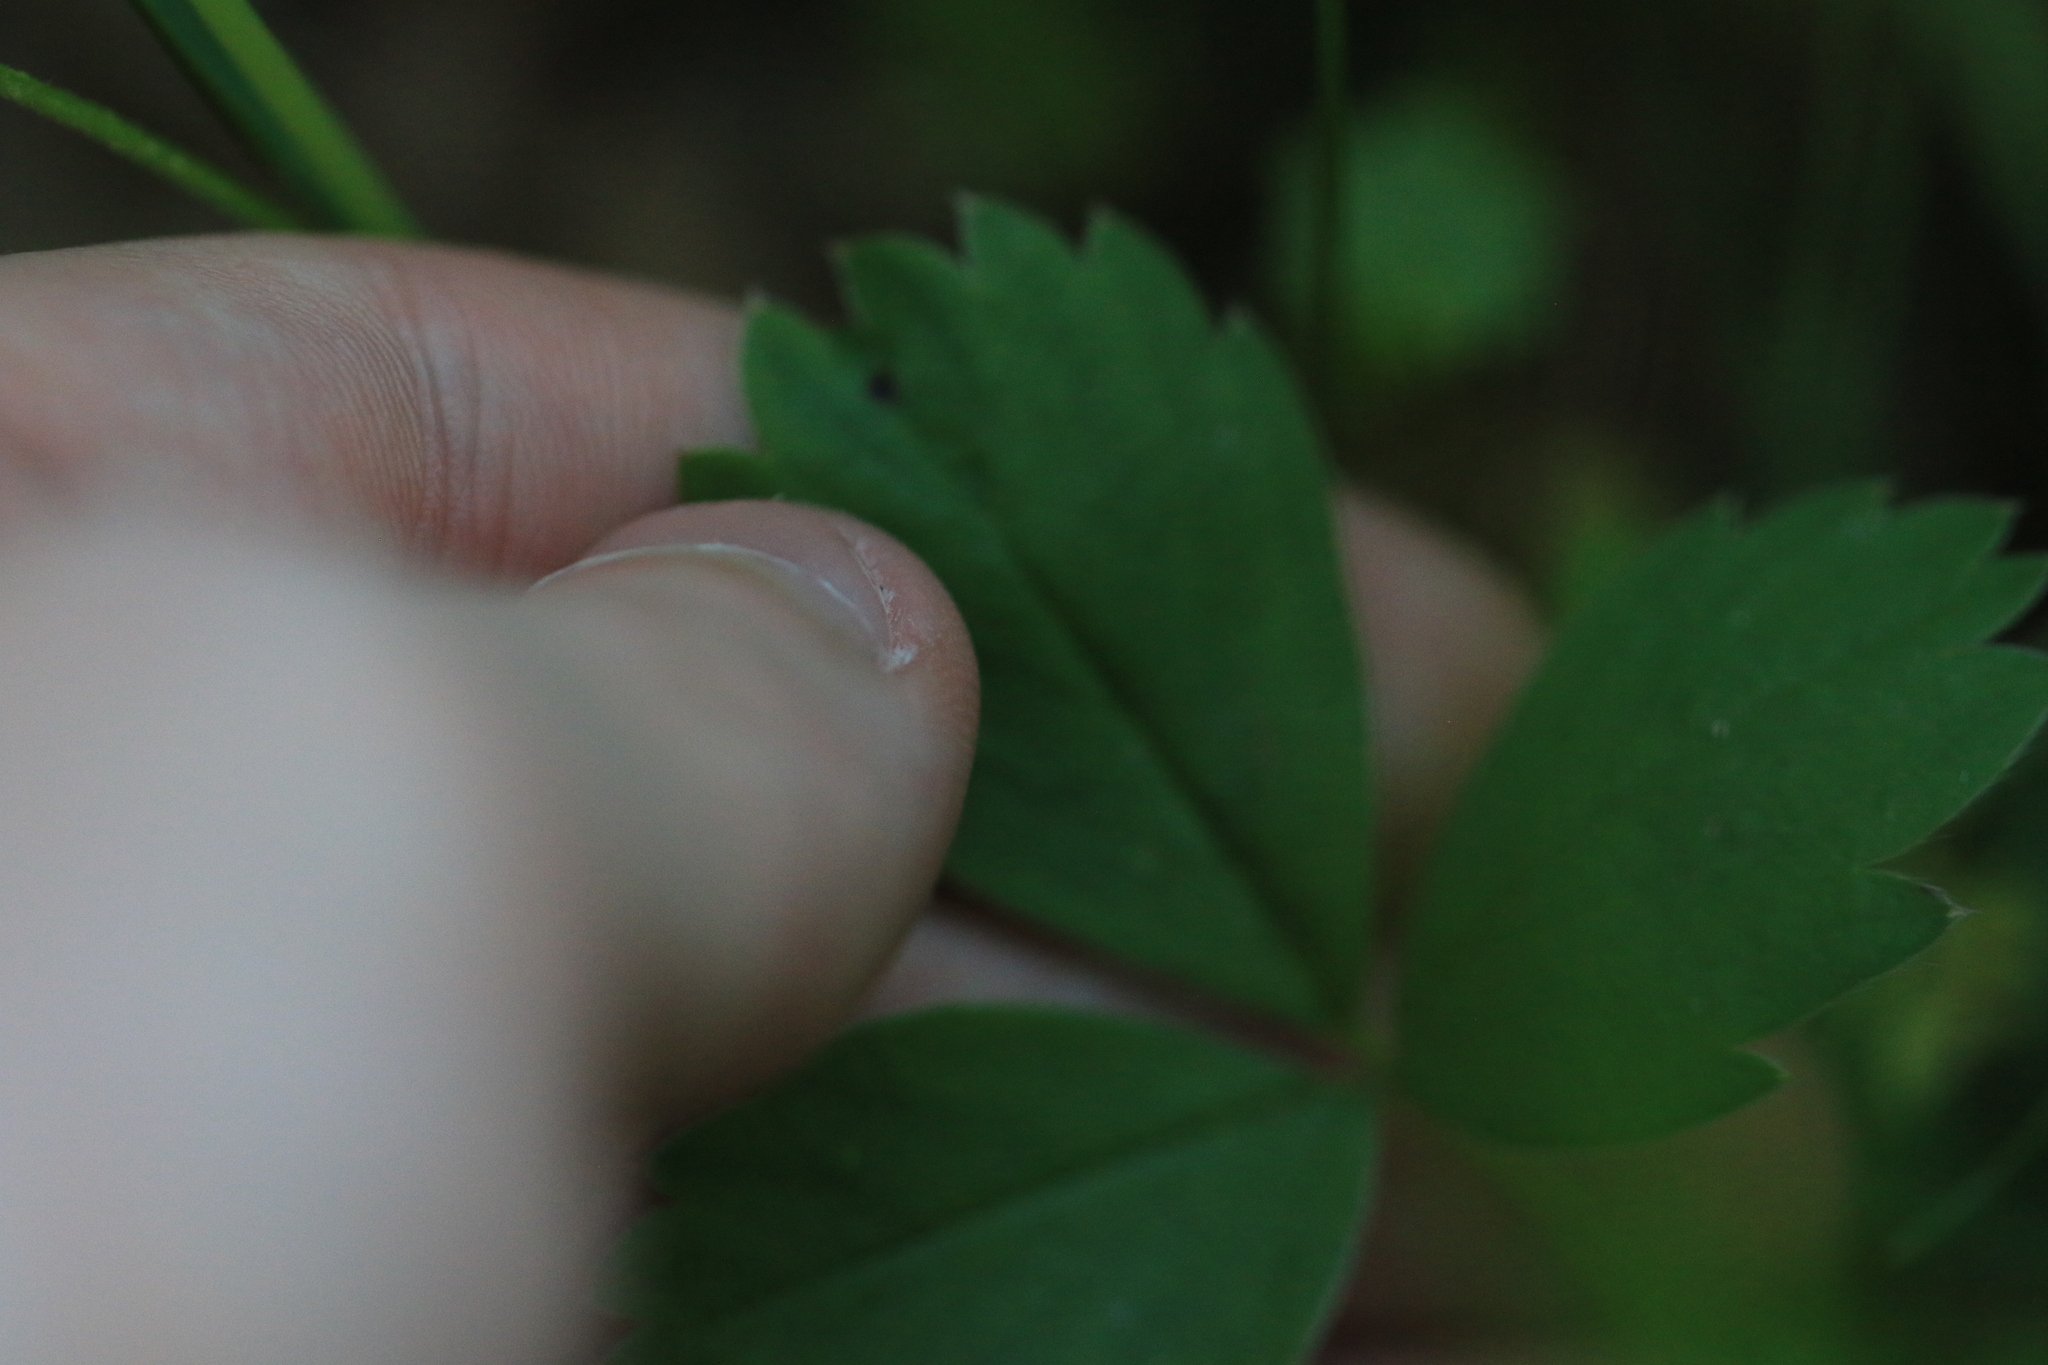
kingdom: Plantae
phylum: Tracheophyta
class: Magnoliopsida
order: Rosales
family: Rosaceae
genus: Fragaria
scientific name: Fragaria virginiana
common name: Thickleaved wild strawberry
